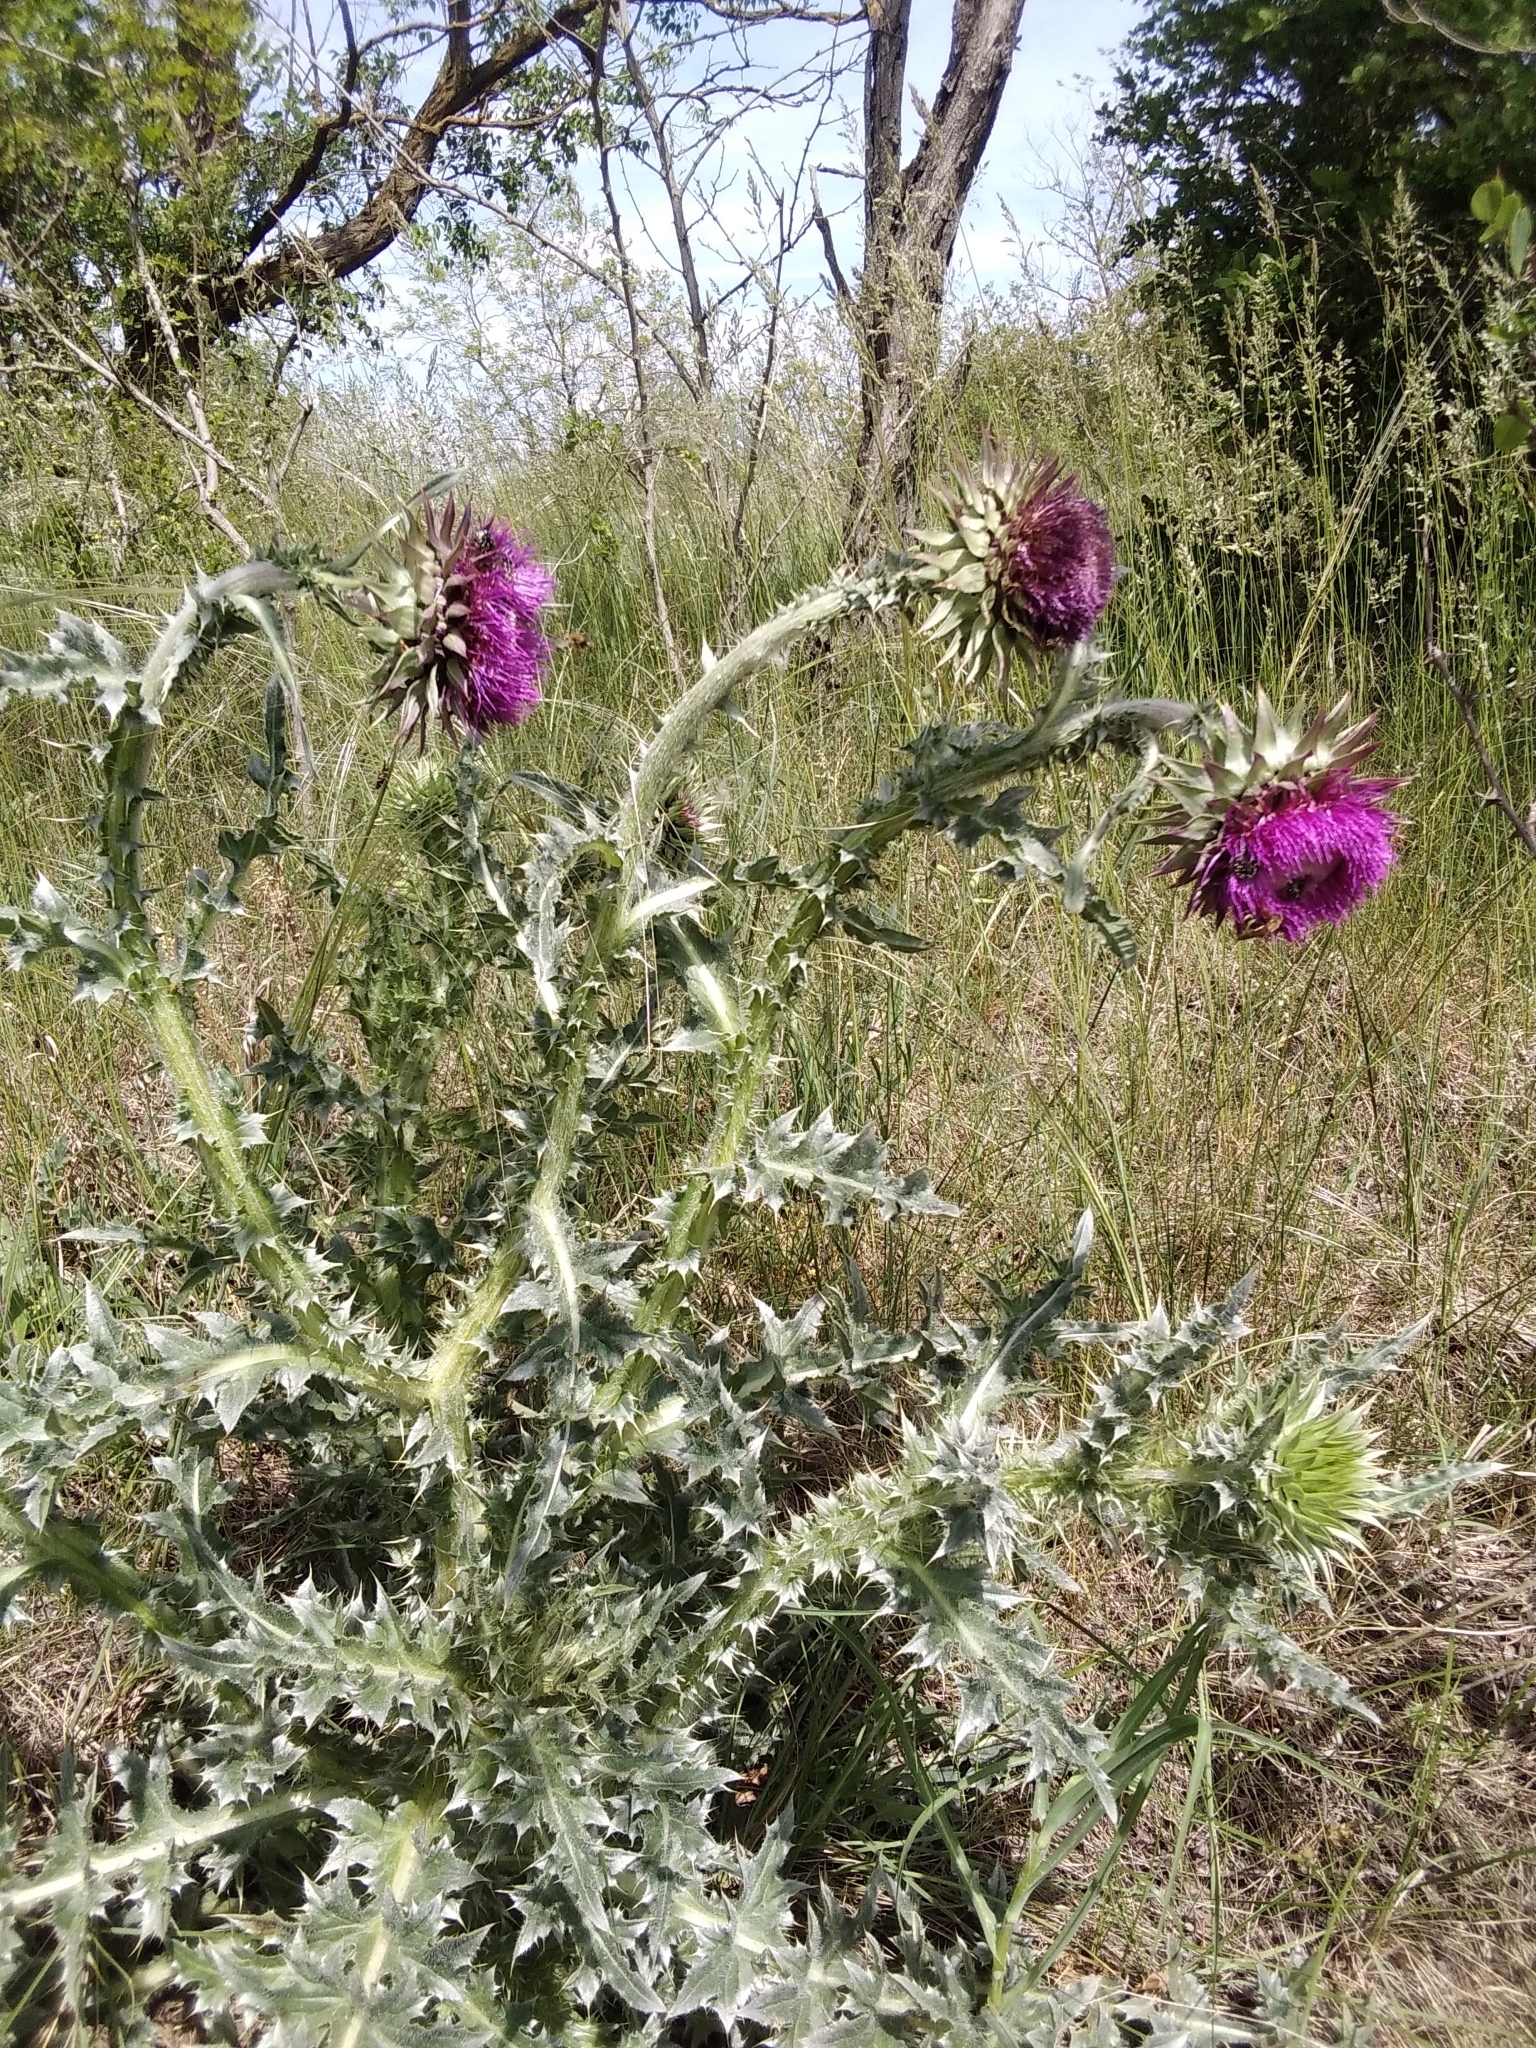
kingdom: Plantae
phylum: Tracheophyta
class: Magnoliopsida
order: Asterales
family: Asteraceae
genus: Carduus
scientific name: Carduus nutans
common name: Musk thistle
